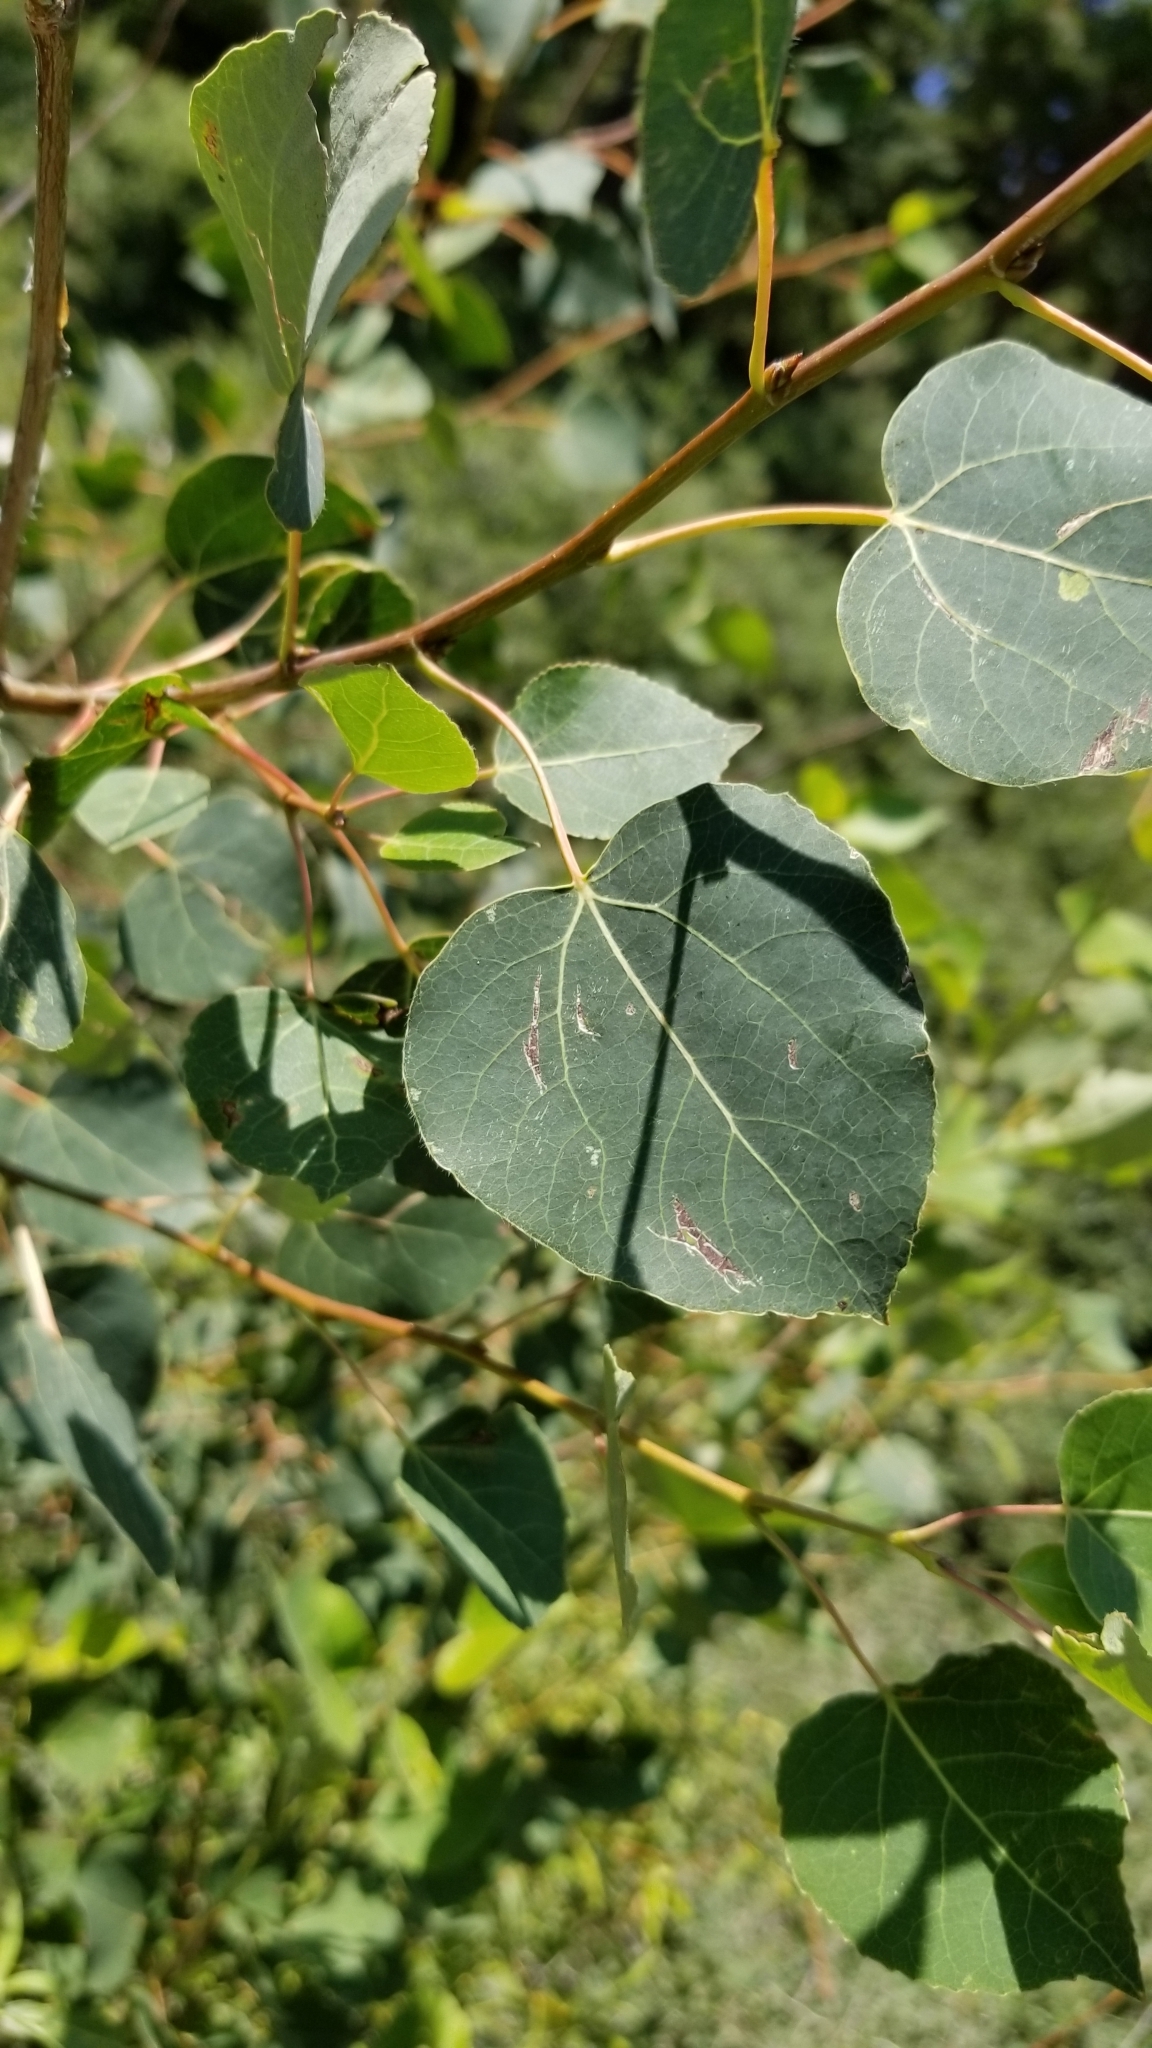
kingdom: Plantae
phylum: Tracheophyta
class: Magnoliopsida
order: Malpighiales
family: Salicaceae
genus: Populus
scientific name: Populus tremuloides
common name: Quaking aspen
